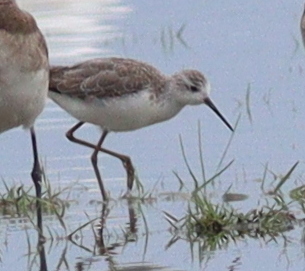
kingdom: Animalia
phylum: Chordata
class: Aves
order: Charadriiformes
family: Scolopacidae
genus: Tringa
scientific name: Tringa stagnatilis
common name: Marsh sandpiper
